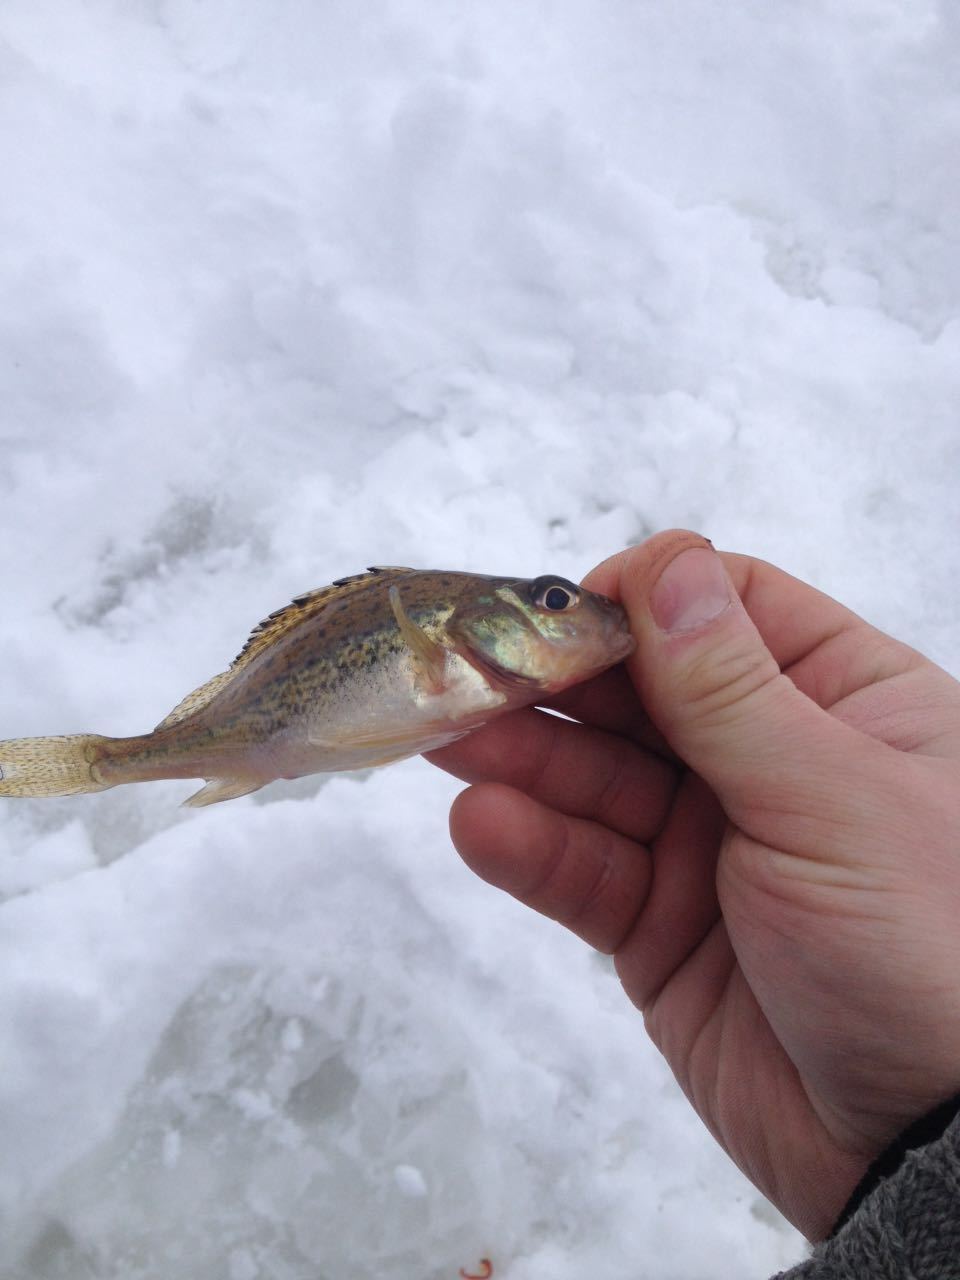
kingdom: Animalia
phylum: Chordata
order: Perciformes
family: Percidae
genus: Gymnocephalus
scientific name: Gymnocephalus cernua
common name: Ruffe
